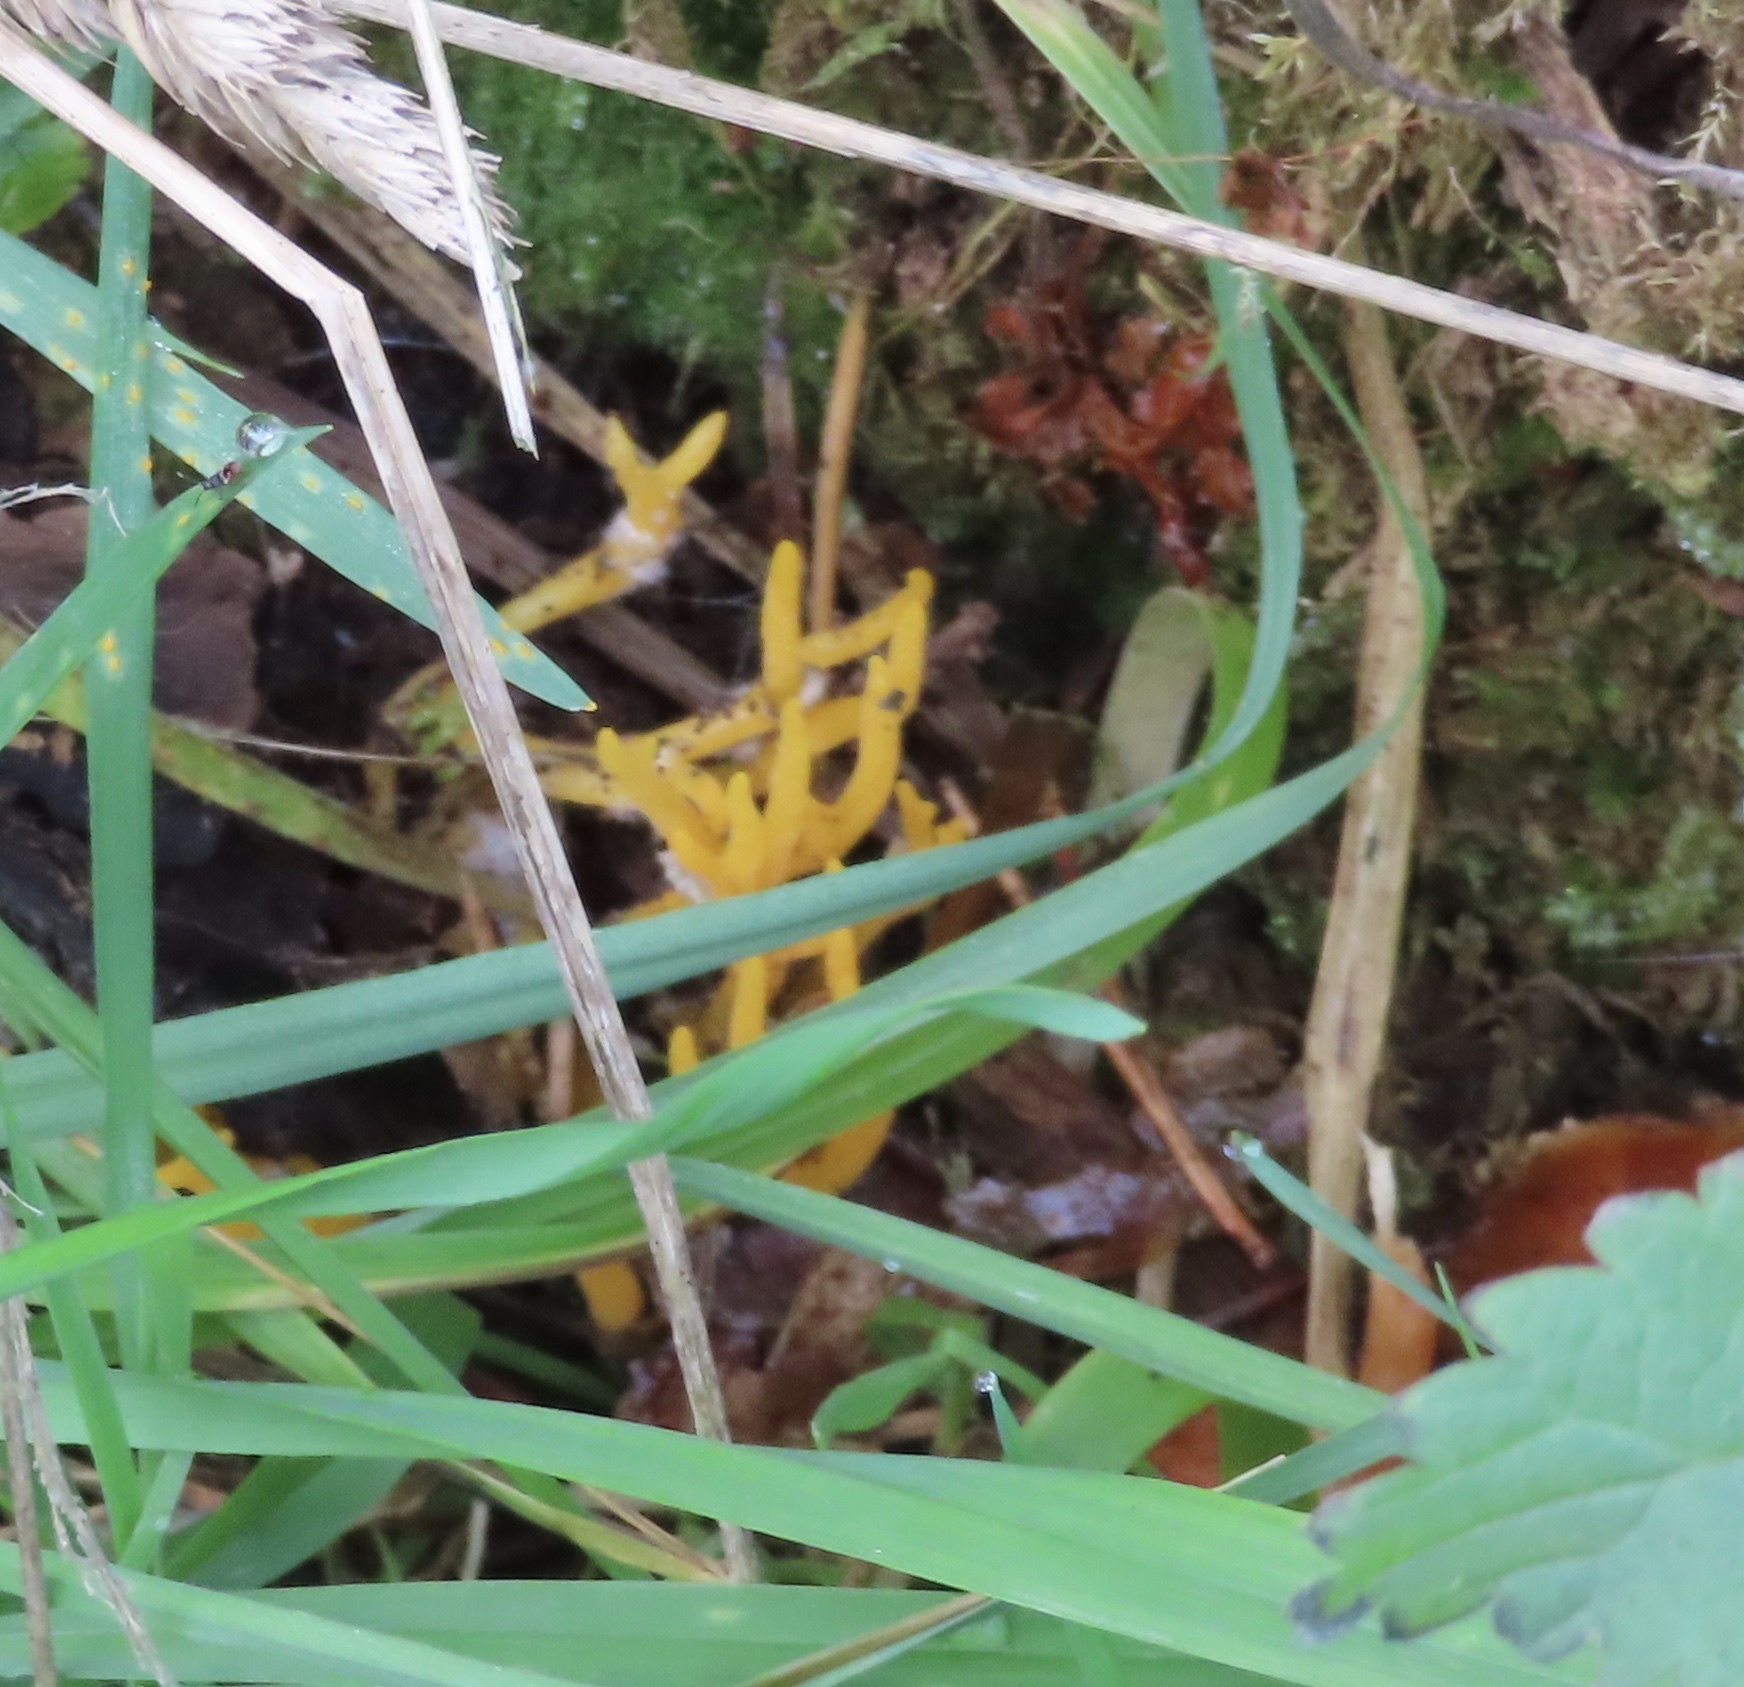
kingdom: Fungi
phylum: Basidiomycota
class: Dacrymycetes
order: Dacrymycetales
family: Dacrymycetaceae
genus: Calocera
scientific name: Calocera viscosa
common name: Yellow stagshorn
